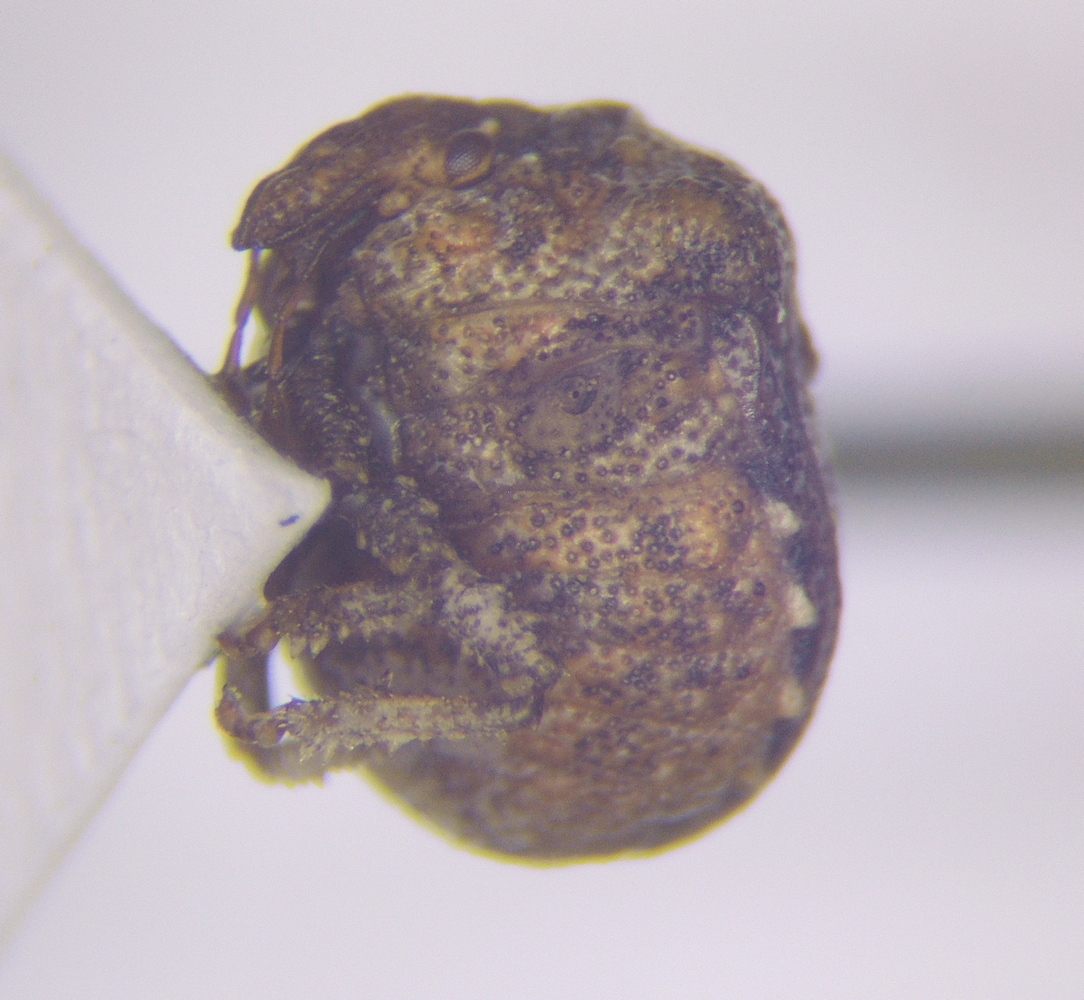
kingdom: Animalia
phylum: Arthropoda
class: Insecta
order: Hemiptera
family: Pentatomidae
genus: Vilpianus
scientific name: Vilpianus galii
